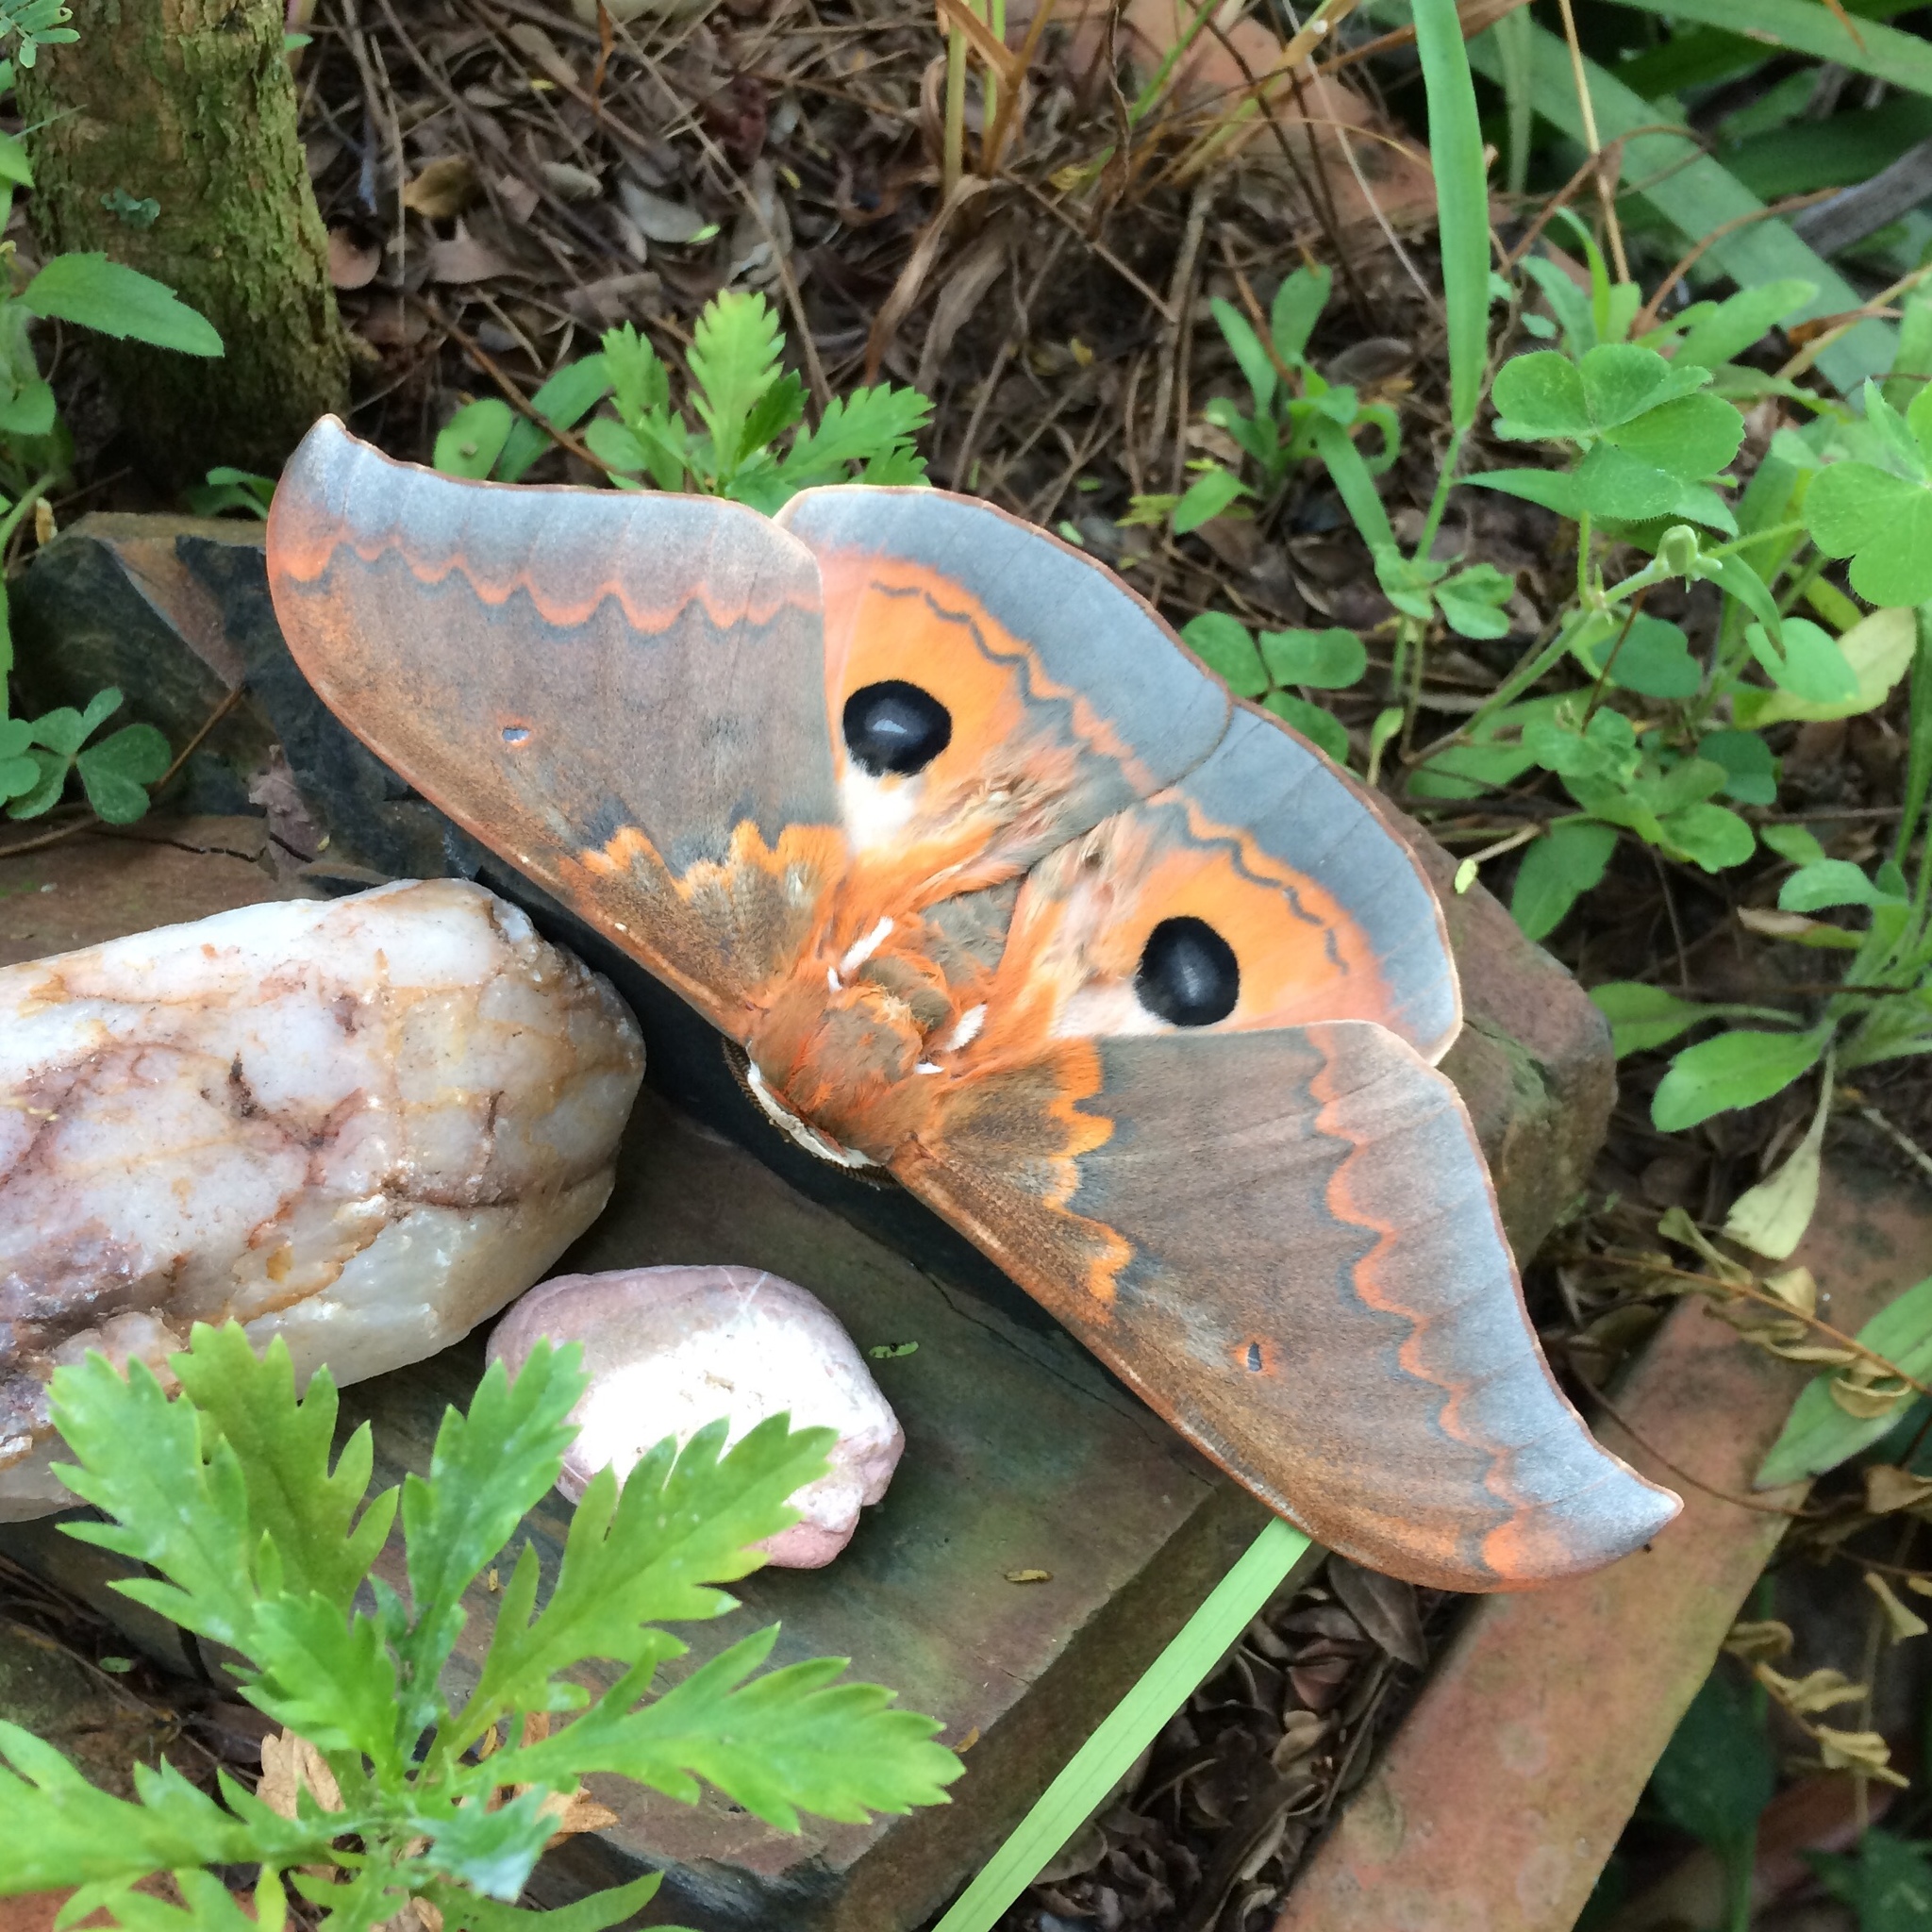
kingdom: Animalia
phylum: Arthropoda
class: Insecta
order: Lepidoptera
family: Saturniidae
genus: Pseudobunaea
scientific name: Pseudobunaea tyrrhena
